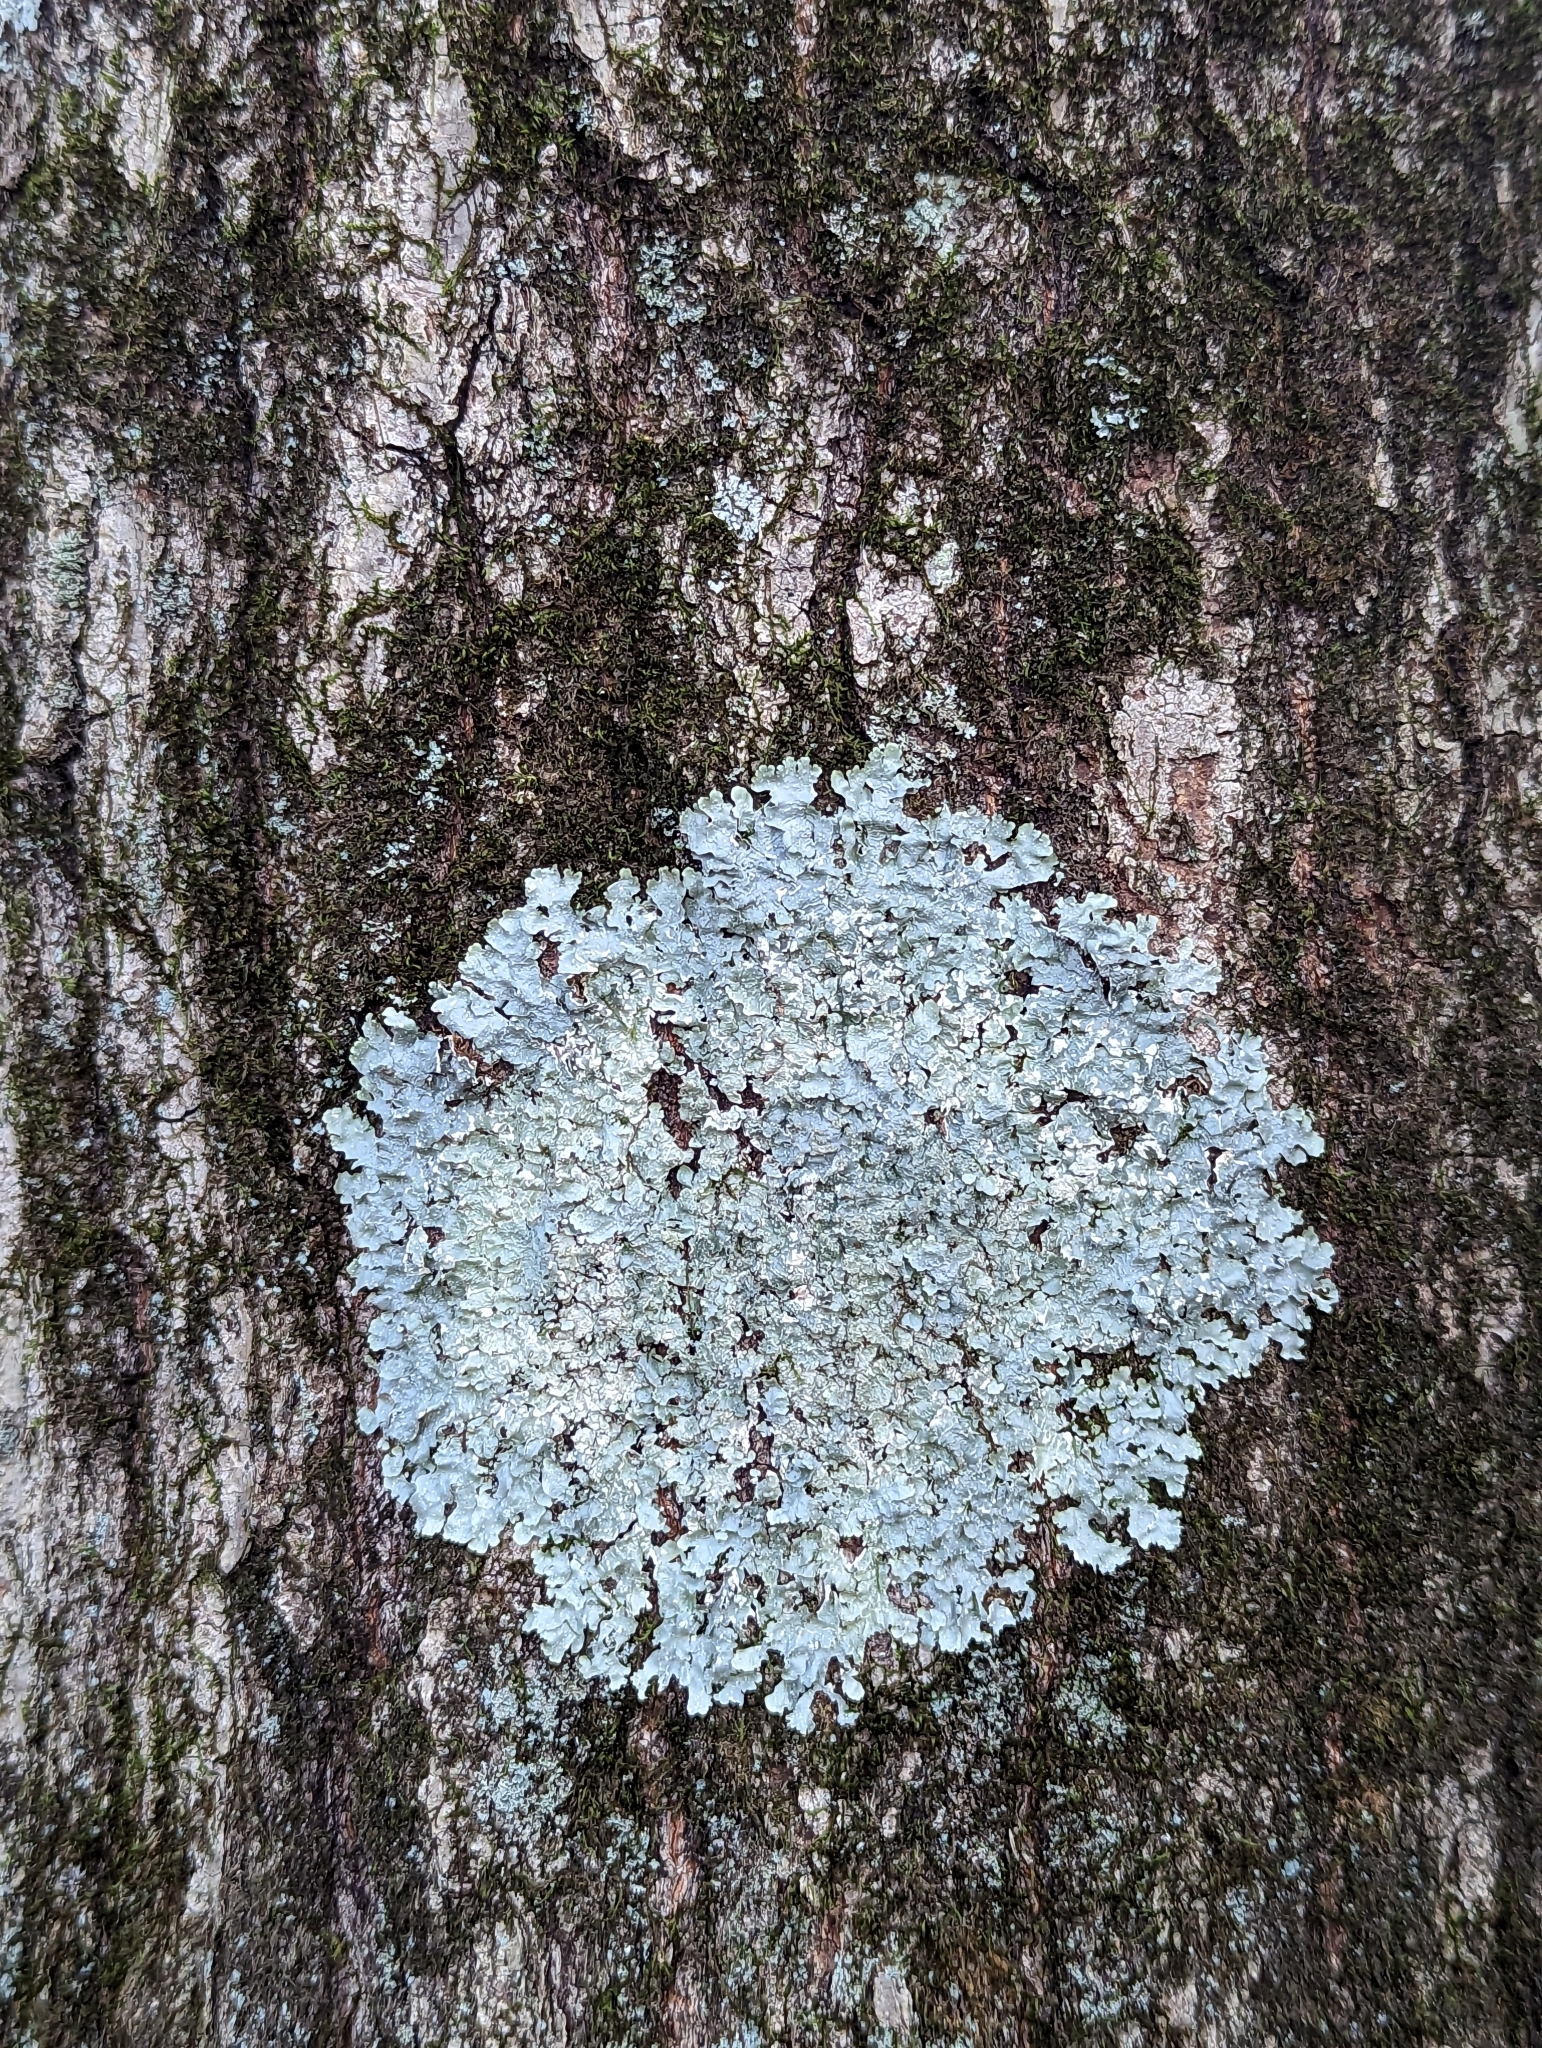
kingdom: Fungi
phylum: Ascomycota
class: Lecanoromycetes
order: Lecanorales
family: Parmeliaceae
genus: Punctelia
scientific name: Punctelia rudecta
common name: Rough speckled shield lichen
